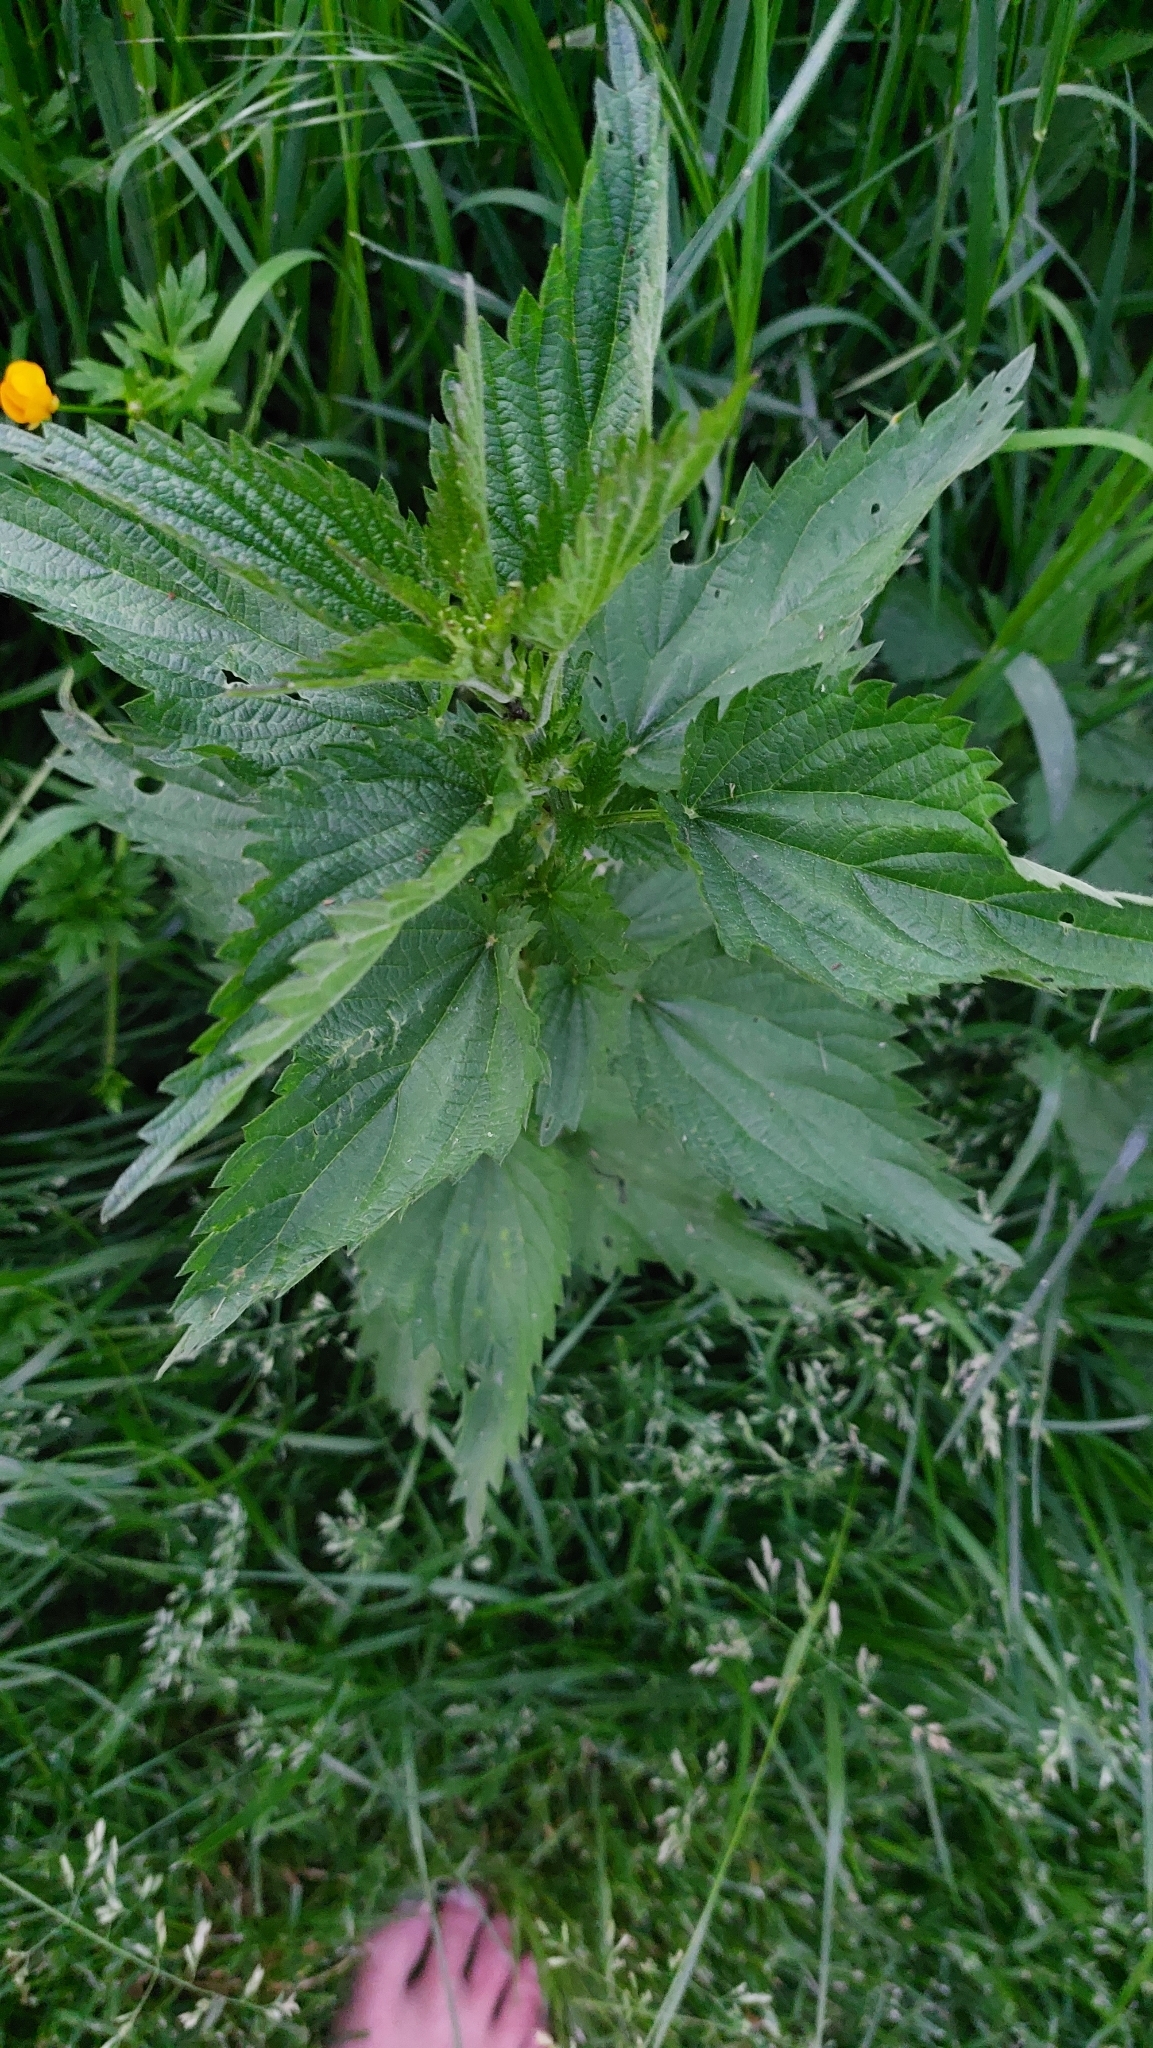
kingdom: Plantae
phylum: Tracheophyta
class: Magnoliopsida
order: Rosales
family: Urticaceae
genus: Urtica
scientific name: Urtica dioica
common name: Common nettle
